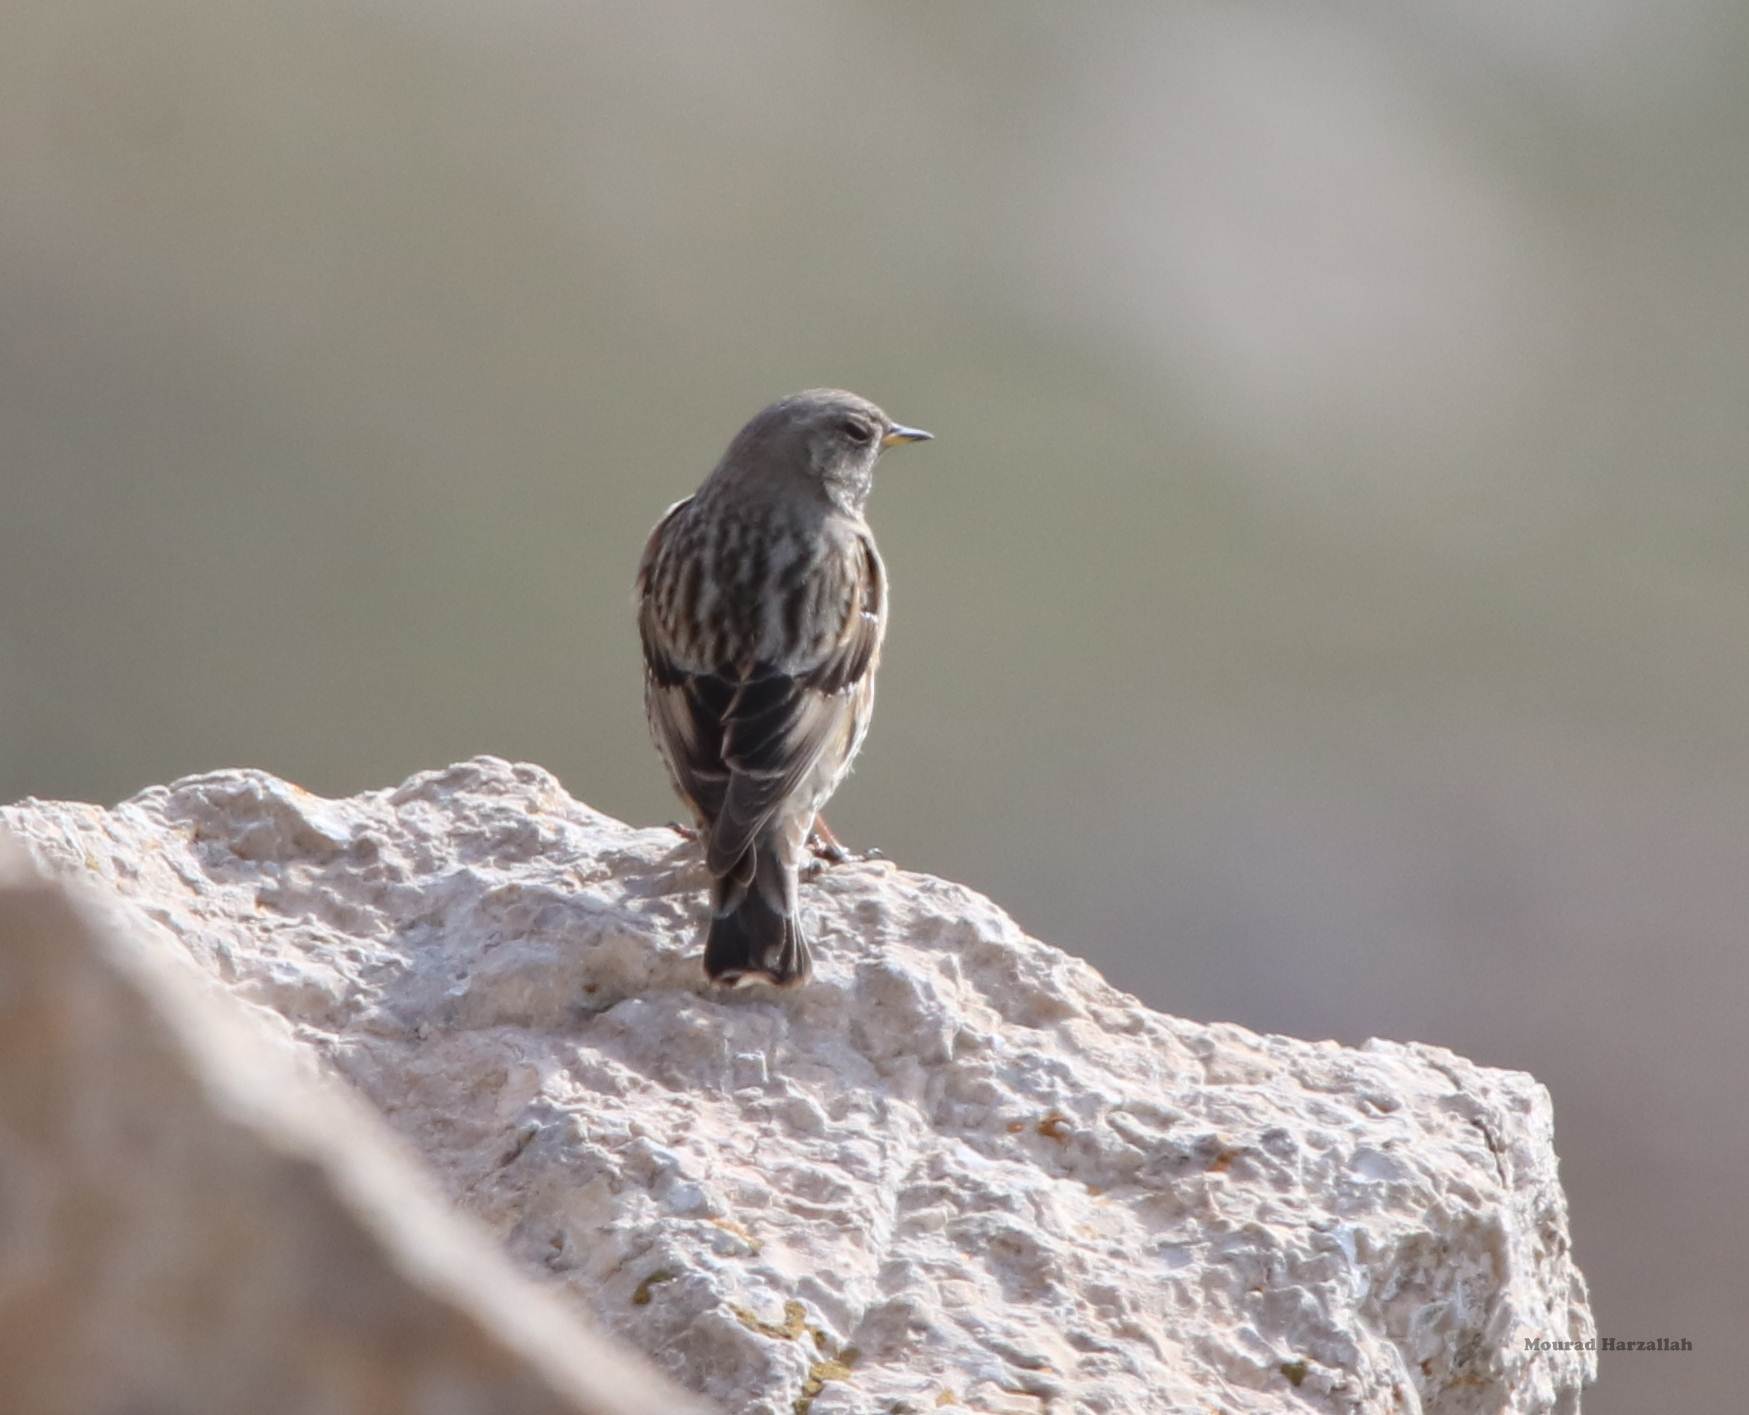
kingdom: Animalia
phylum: Chordata
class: Aves
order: Passeriformes
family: Prunellidae
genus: Prunella
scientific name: Prunella collaris
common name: Alpine accentor
